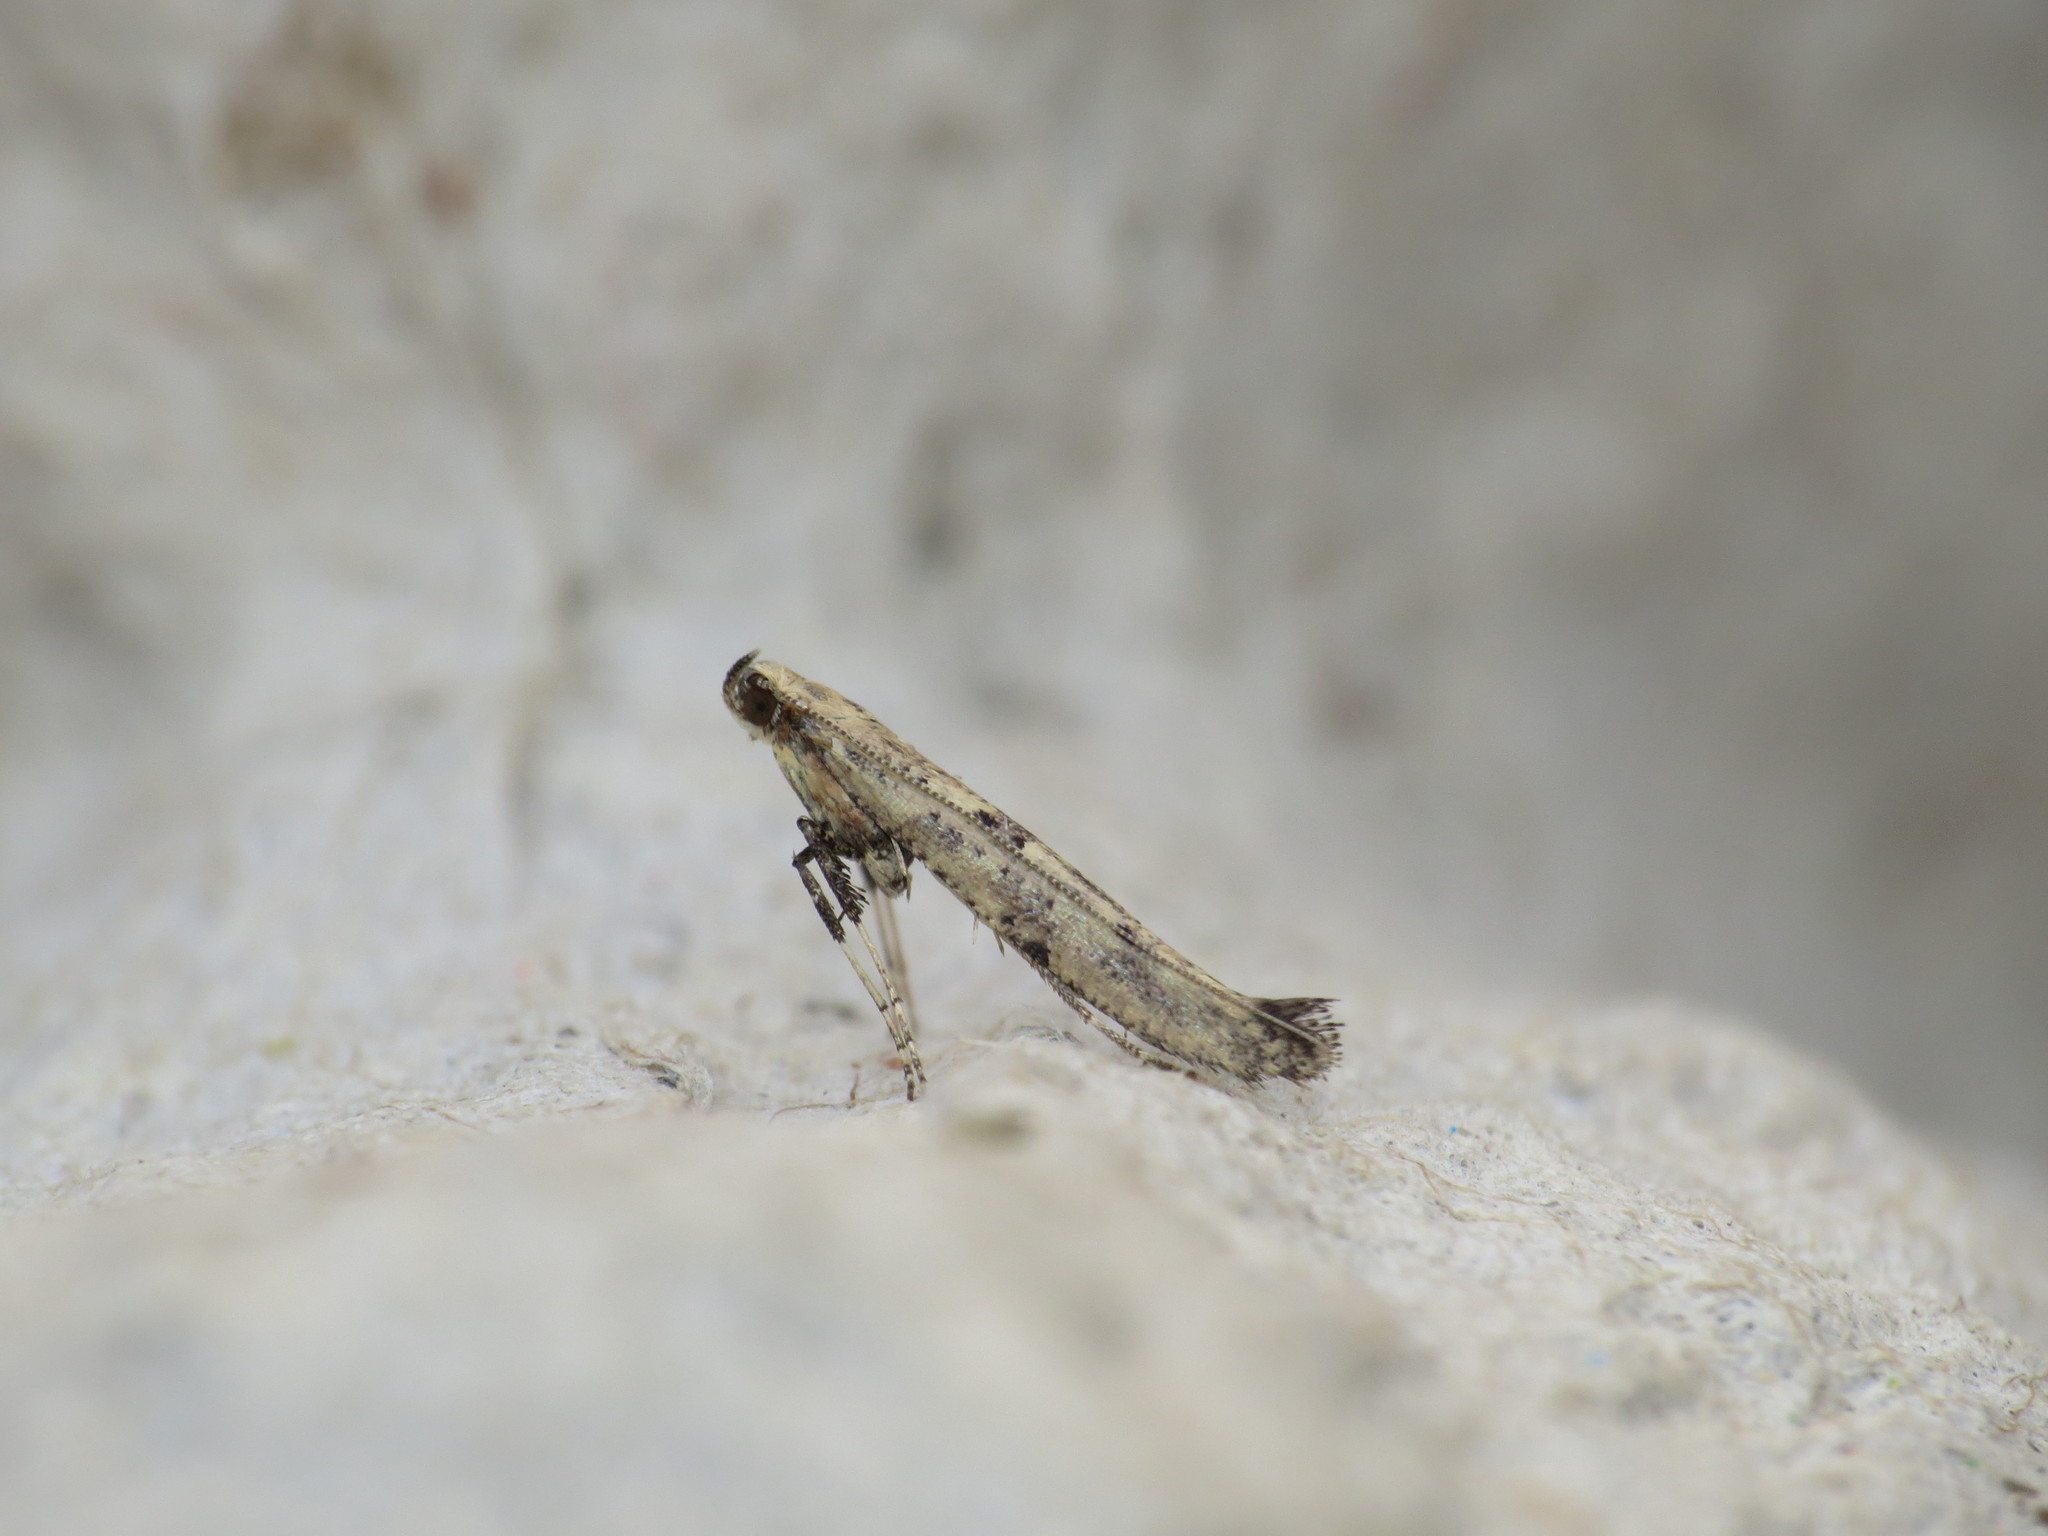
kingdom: Animalia
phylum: Arthropoda
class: Insecta
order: Lepidoptera
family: Gracillariidae
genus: Caloptilia
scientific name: Caloptilia populetorum
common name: Clouded slender
